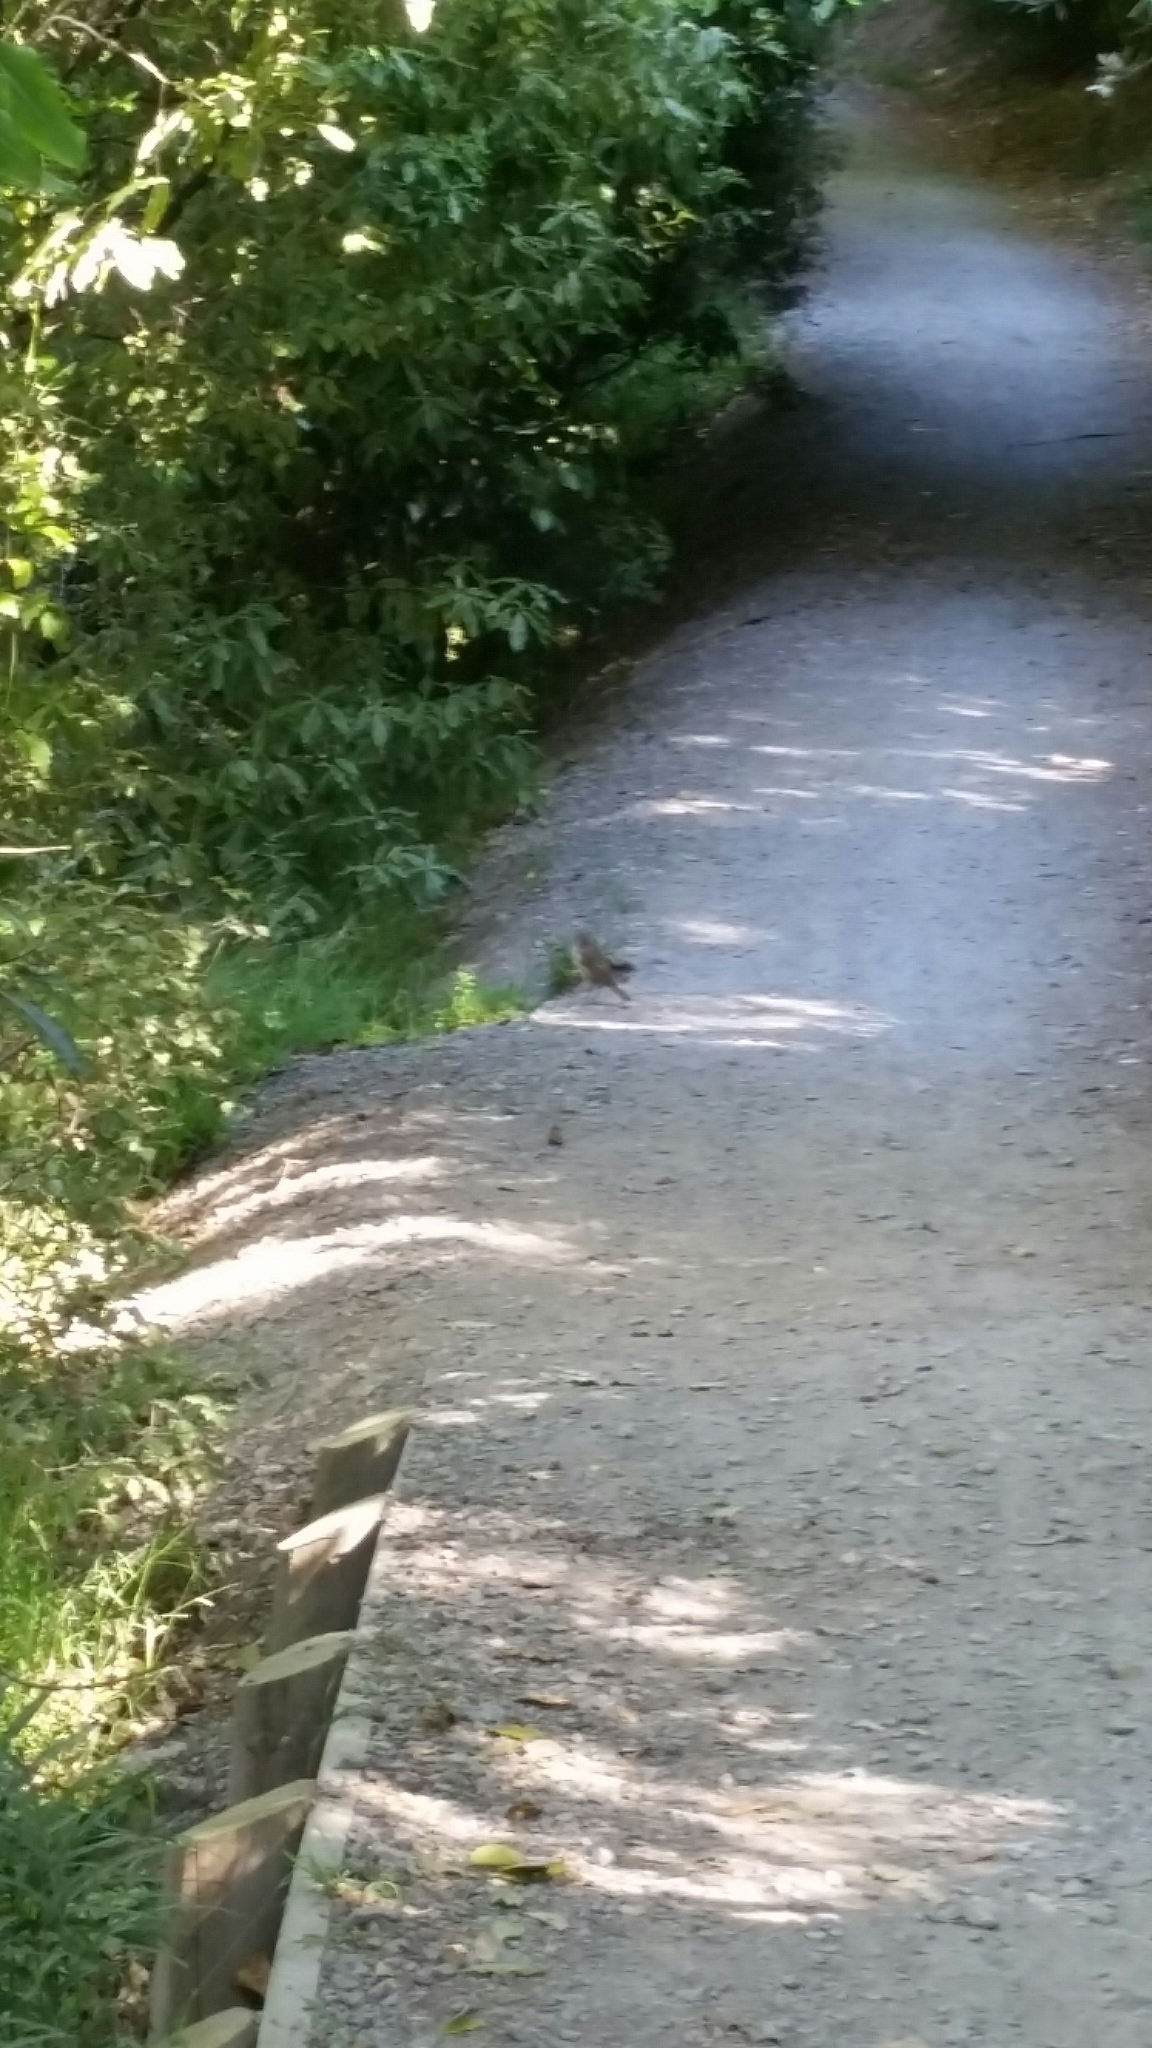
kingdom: Animalia
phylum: Chordata
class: Aves
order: Passeriformes
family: Turdidae
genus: Turdus
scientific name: Turdus philomelos
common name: Song thrush
